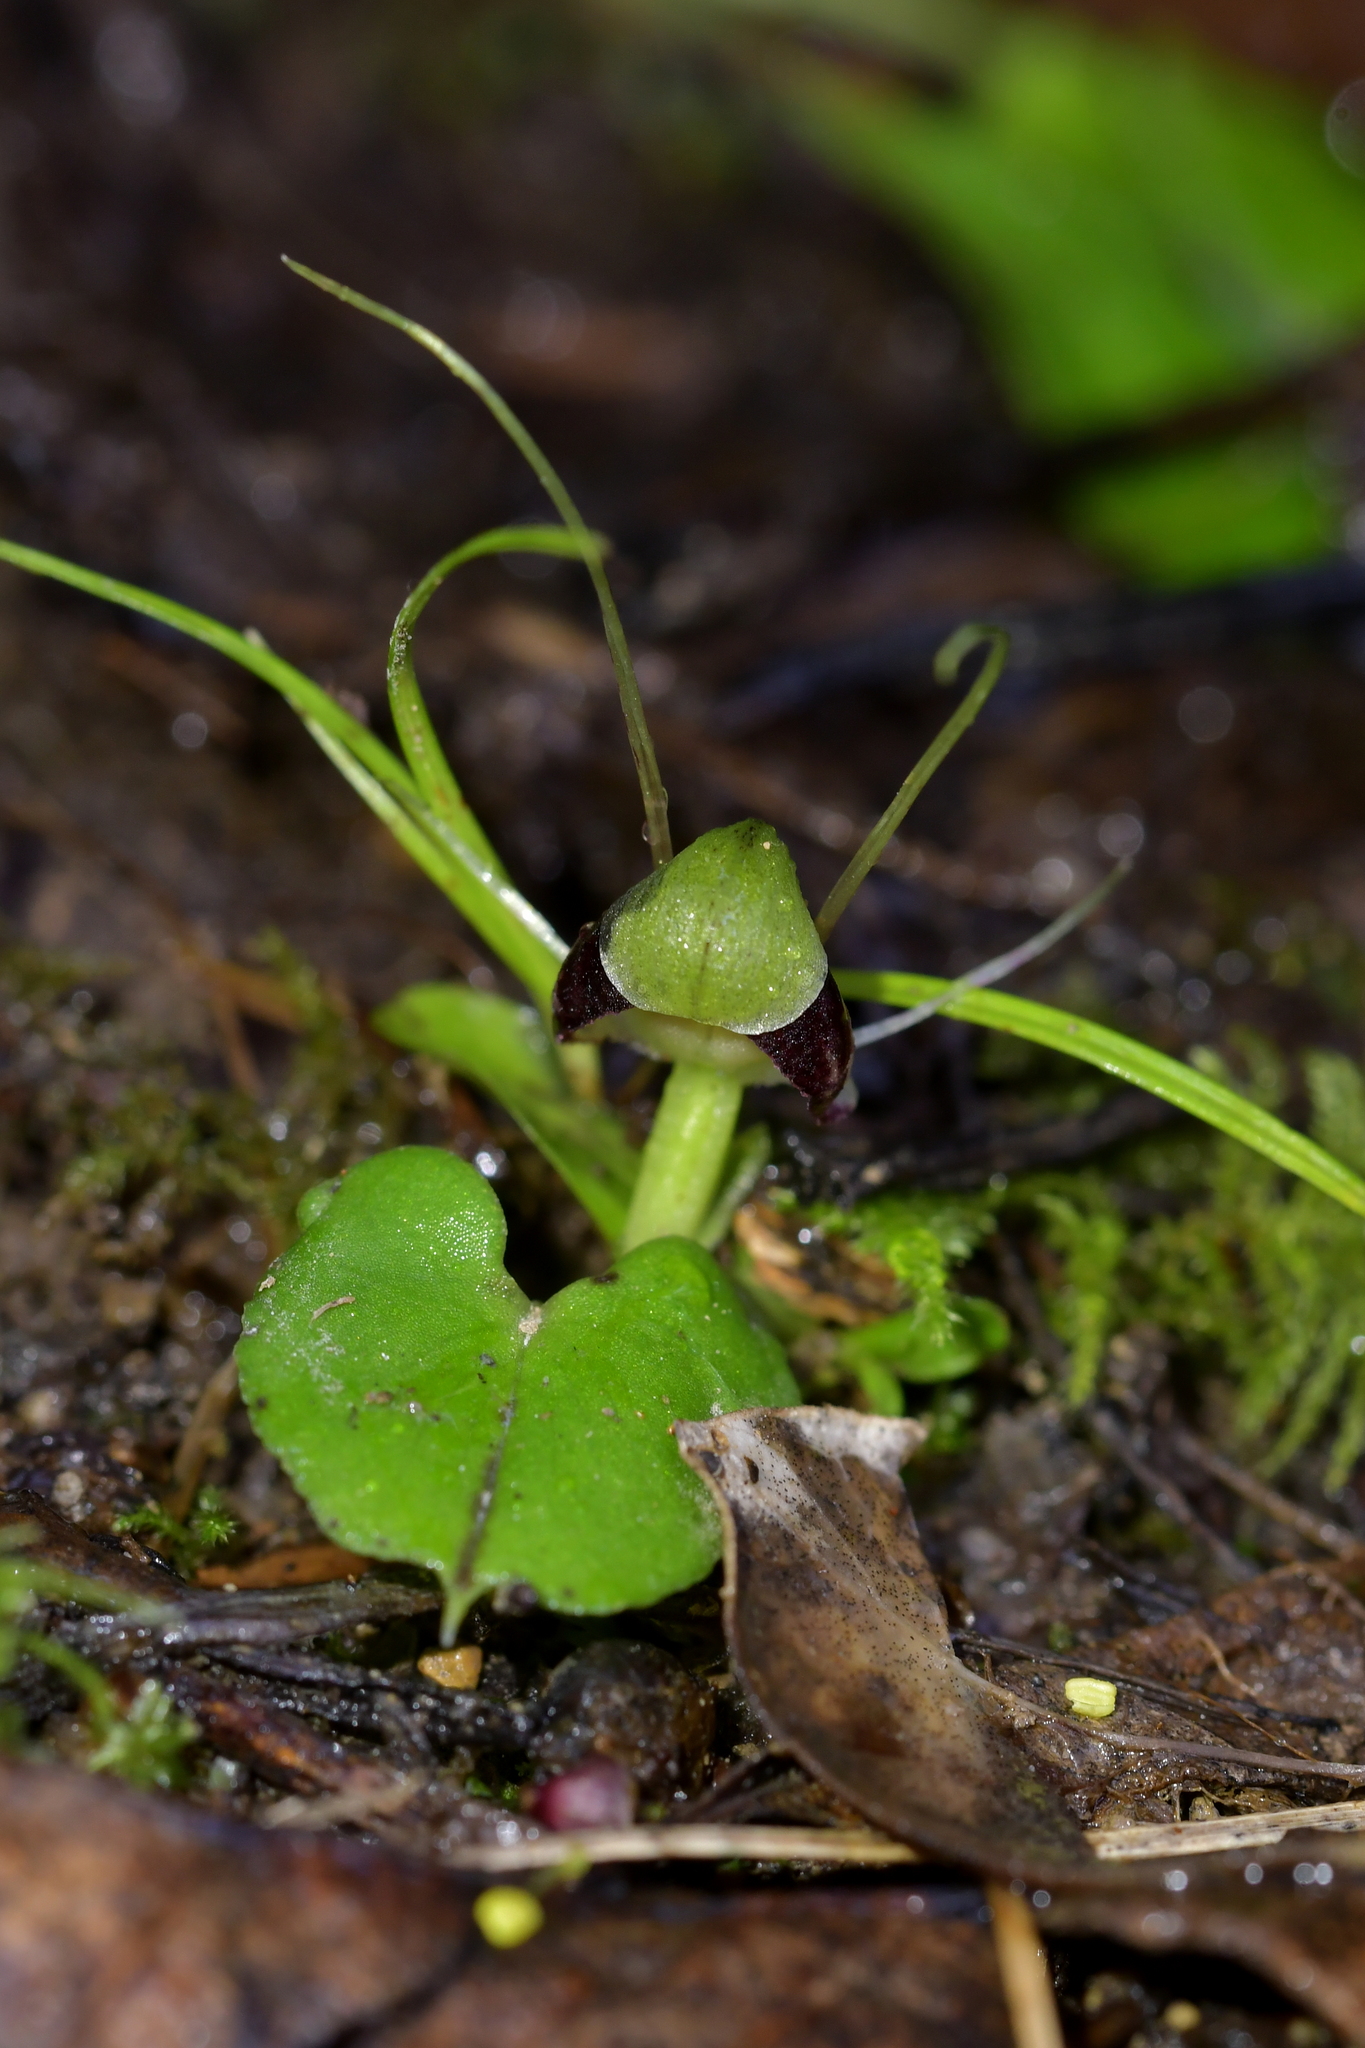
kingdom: Plantae
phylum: Tracheophyta
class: Liliopsida
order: Asparagales
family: Orchidaceae
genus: Corybas
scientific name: Corybas vitreus
